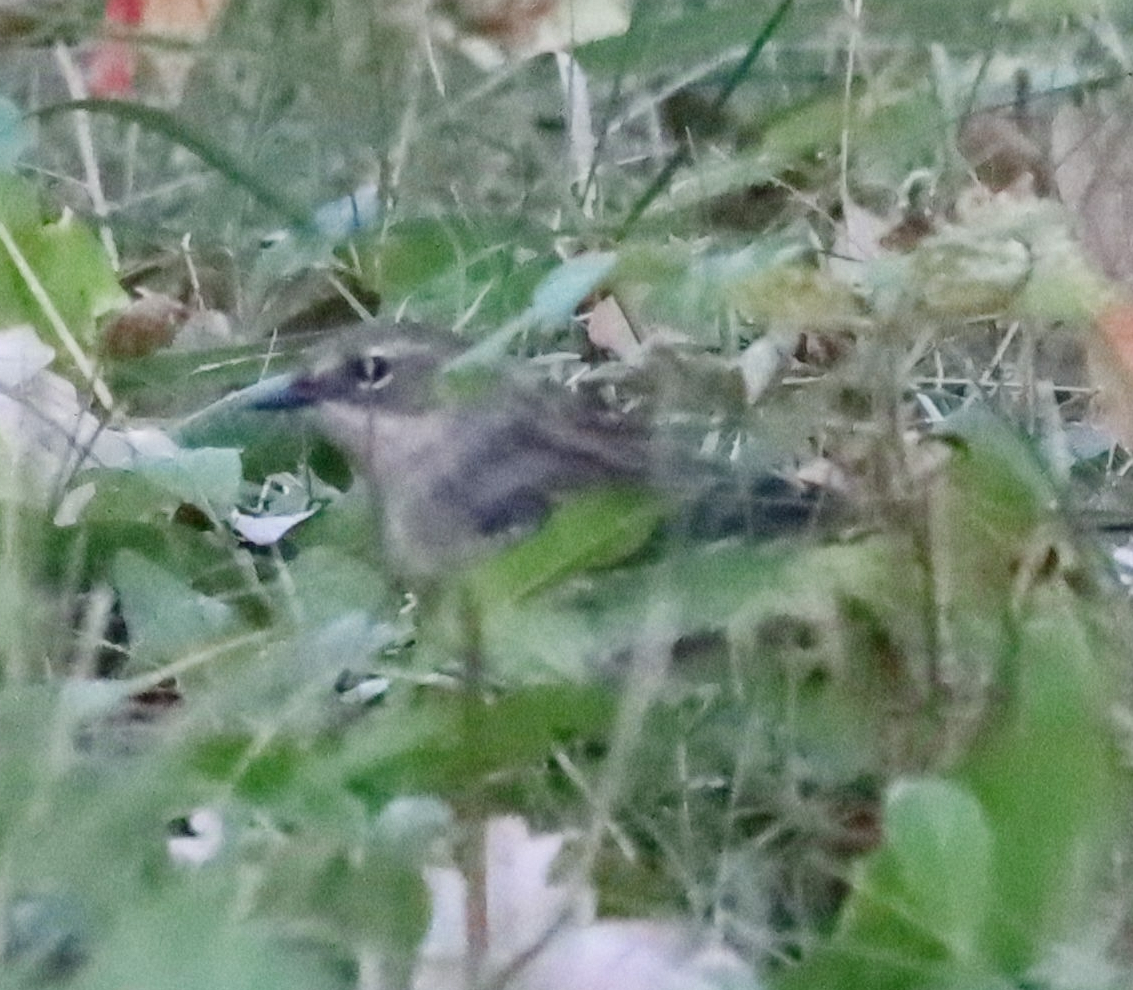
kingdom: Animalia
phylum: Chordata
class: Aves
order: Passeriformes
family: Parulidae
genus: Setophaga
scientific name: Setophaga coronata
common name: Myrtle warbler
